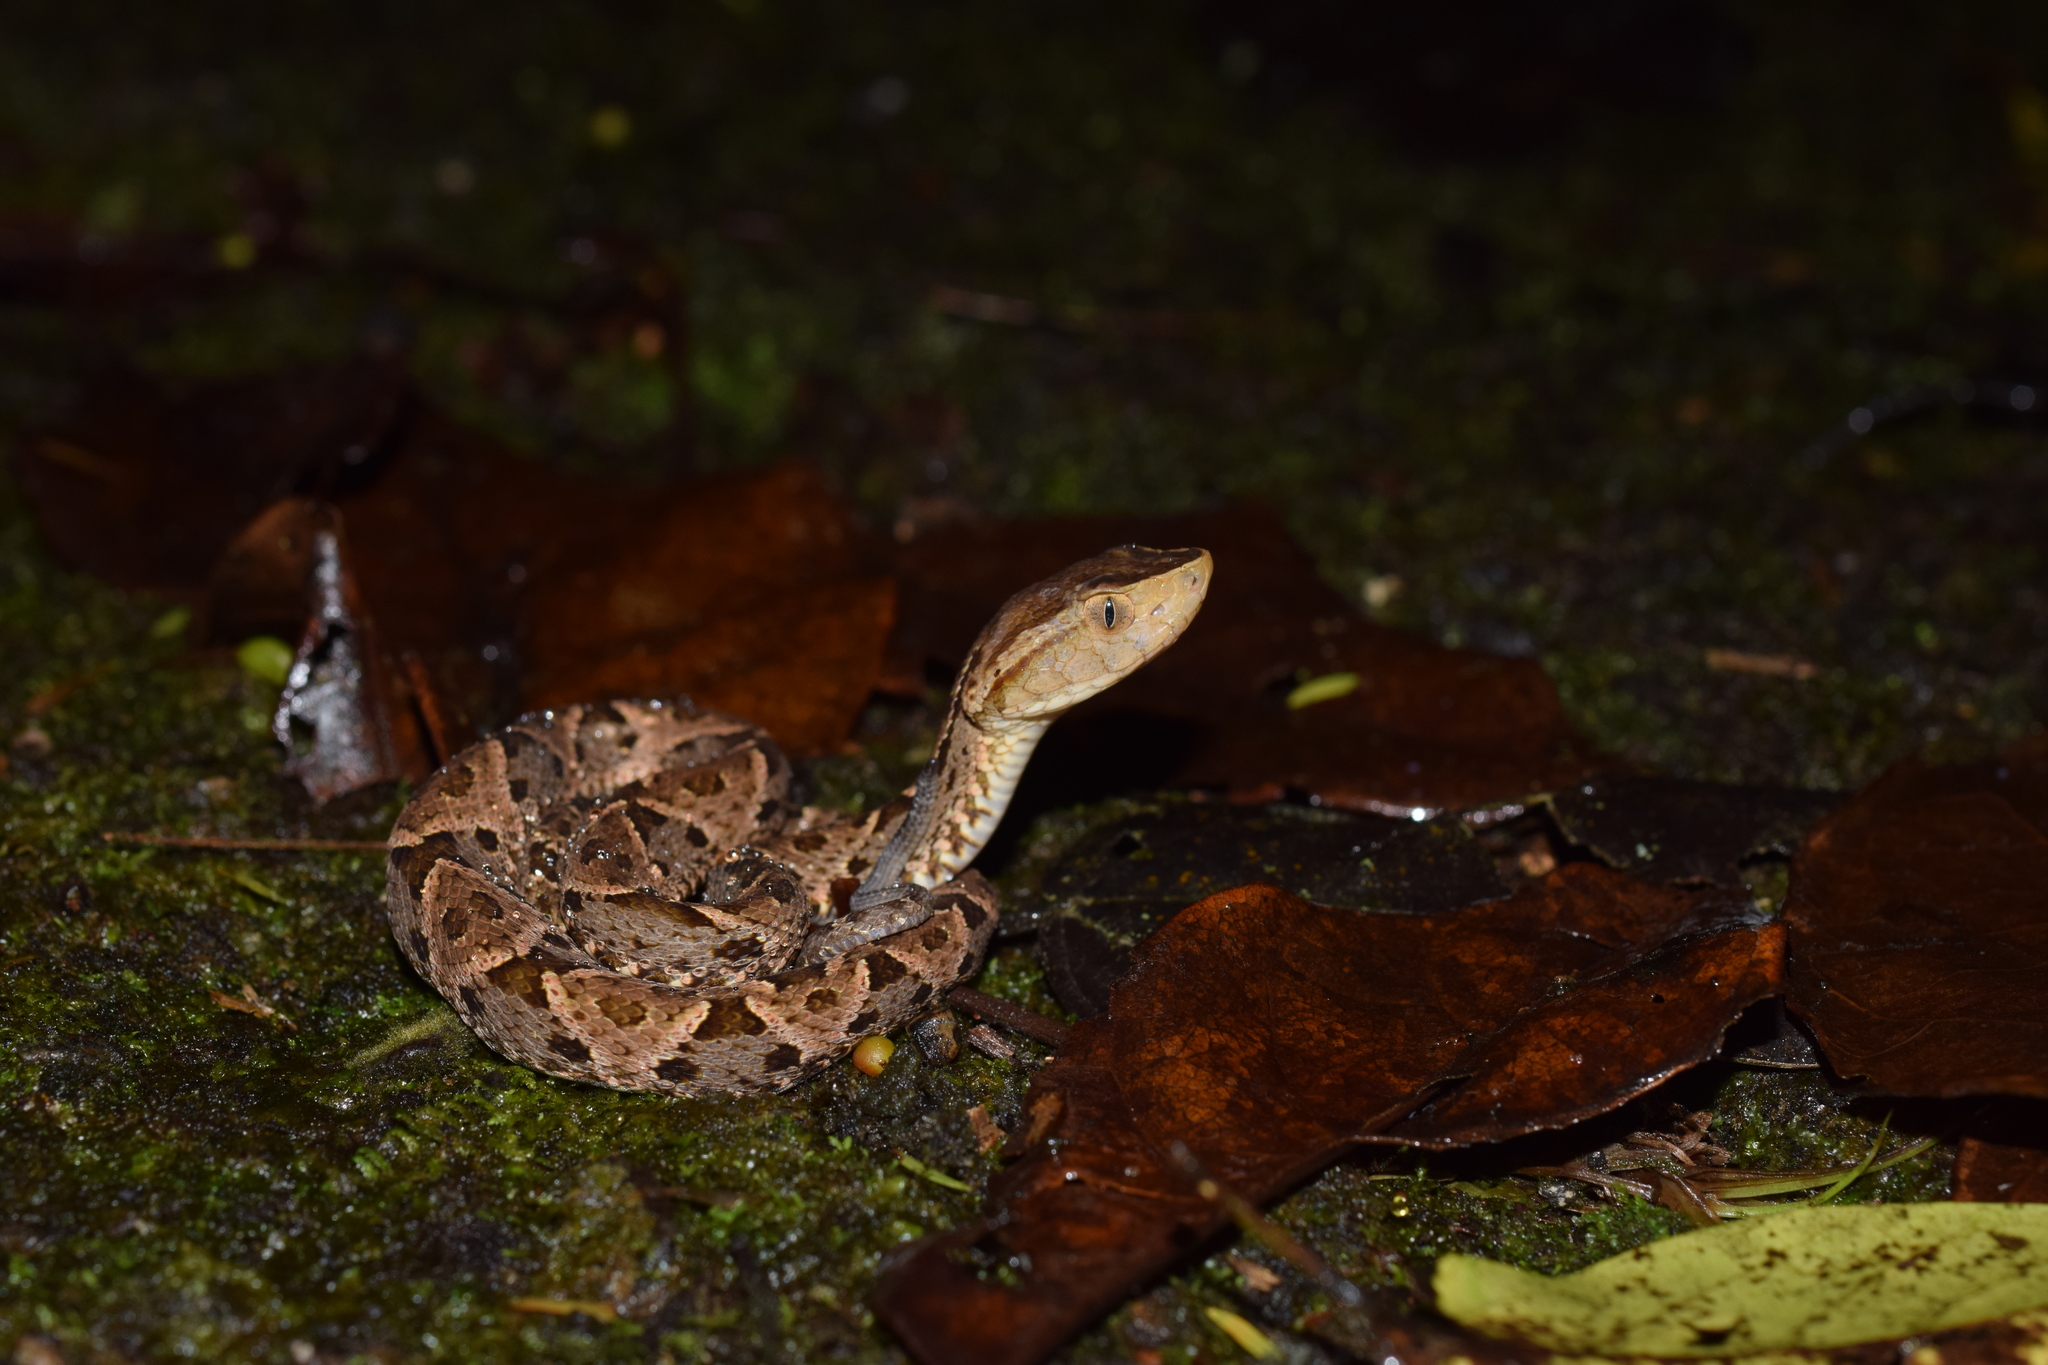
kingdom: Animalia
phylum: Chordata
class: Squamata
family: Viperidae
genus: Bothrops
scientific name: Bothrops asper
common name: Terciopelo
